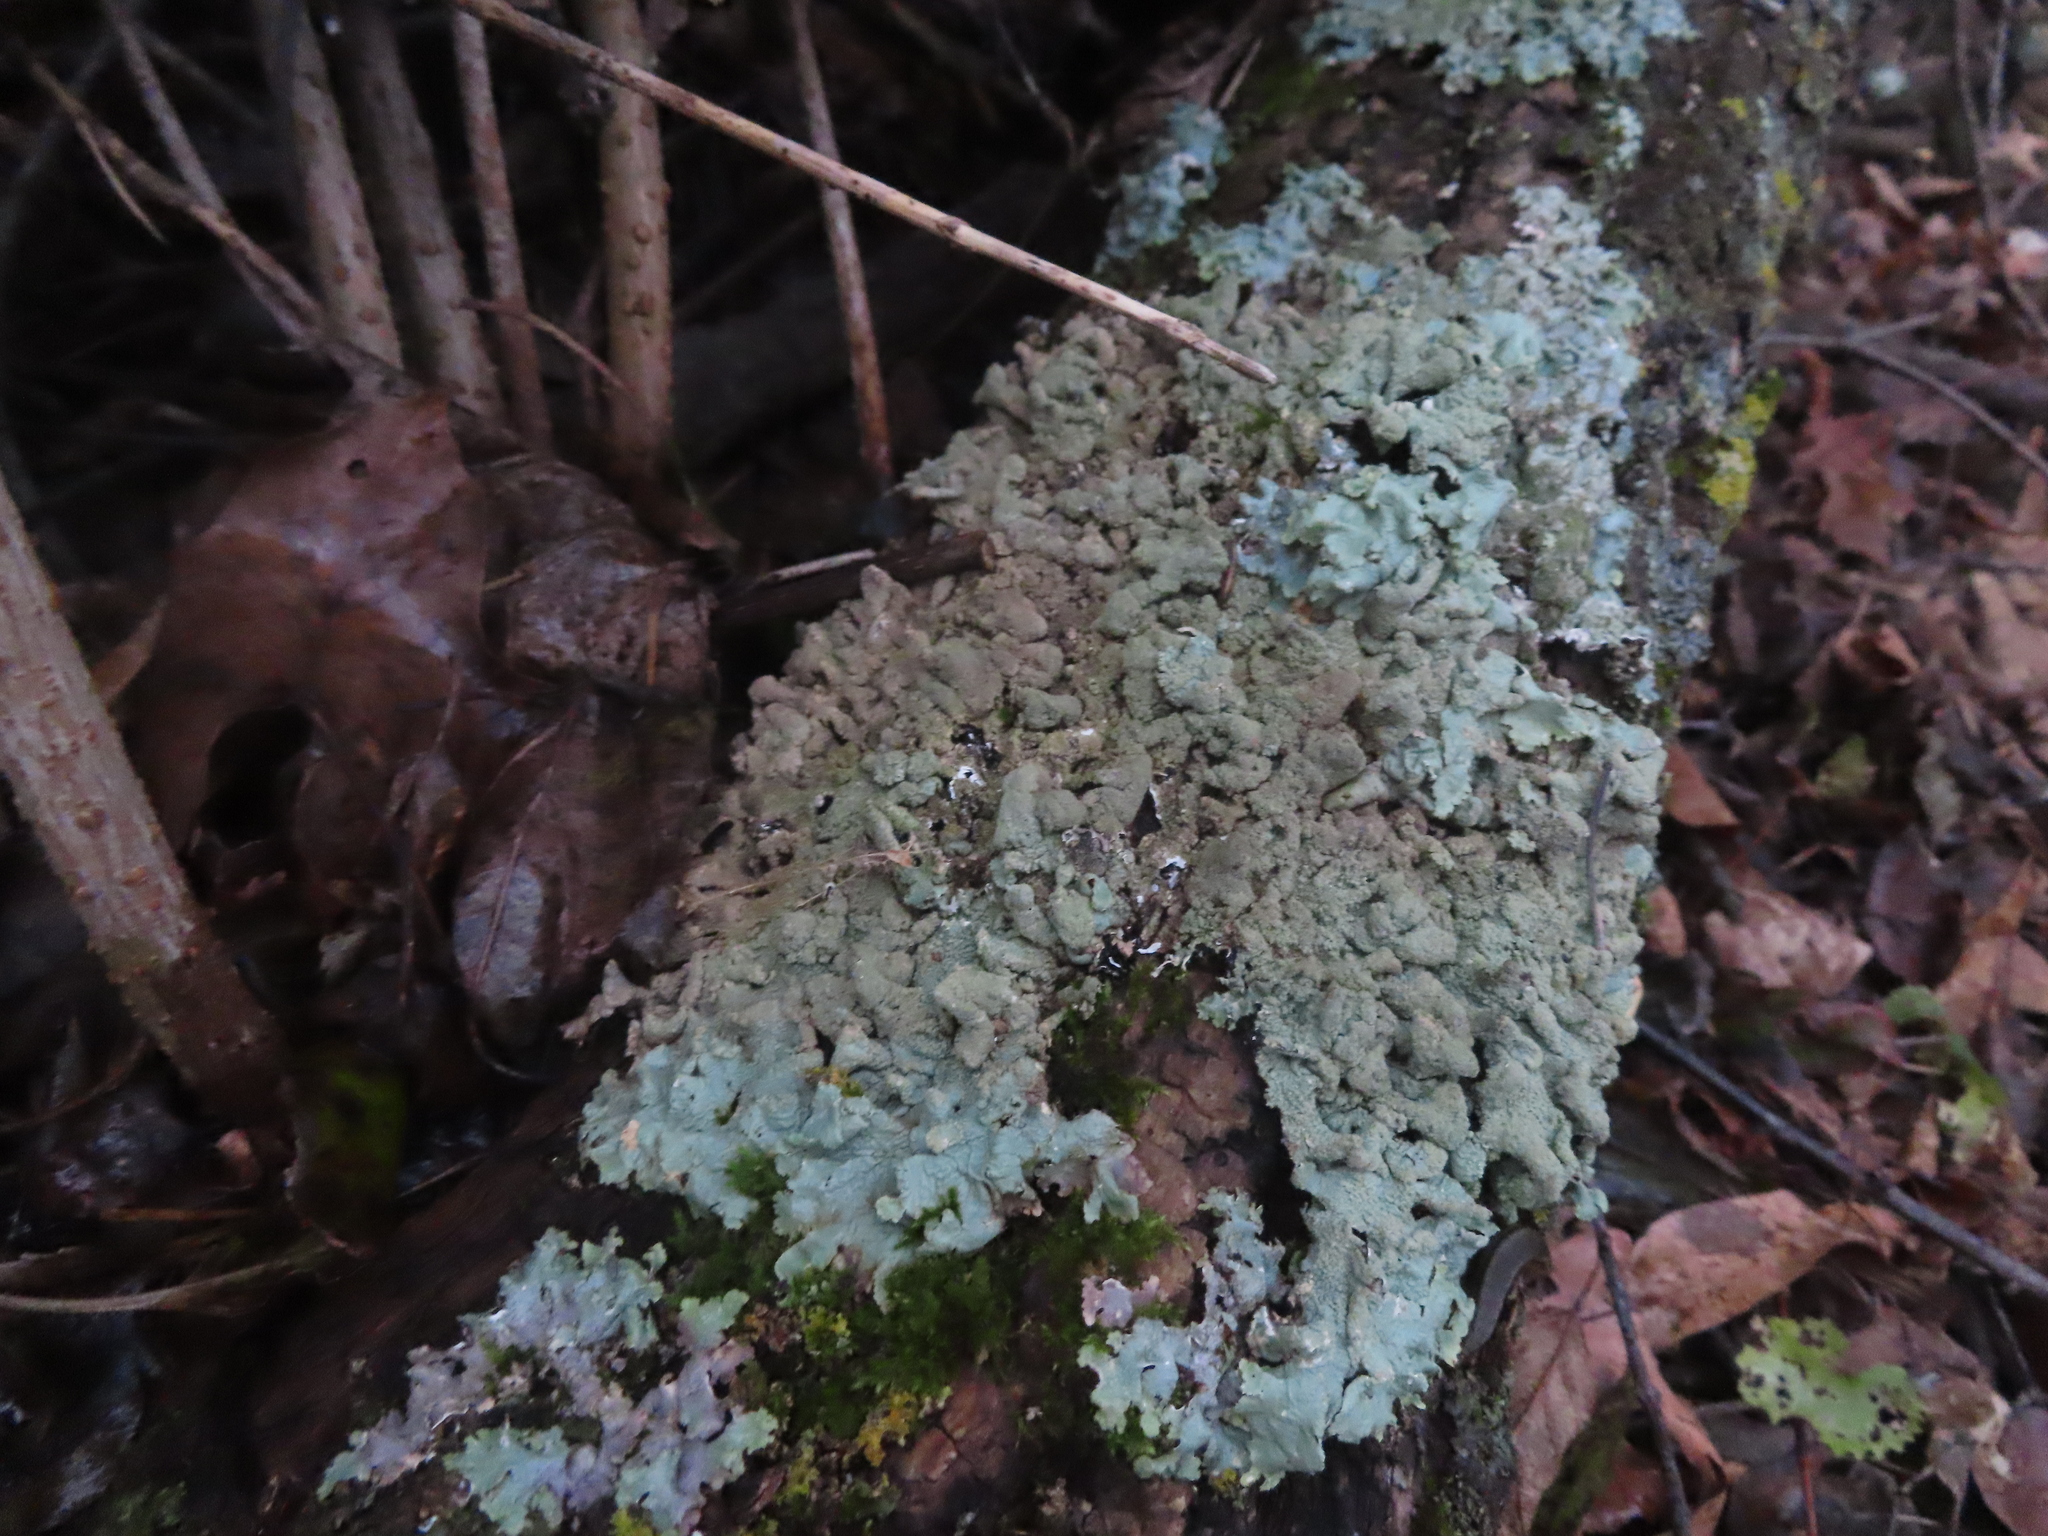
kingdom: Fungi
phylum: Ascomycota
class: Lecanoromycetes
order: Lecanorales
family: Parmeliaceae
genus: Flavoparmelia
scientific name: Flavoparmelia caperata
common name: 40-mile per hour lichen
